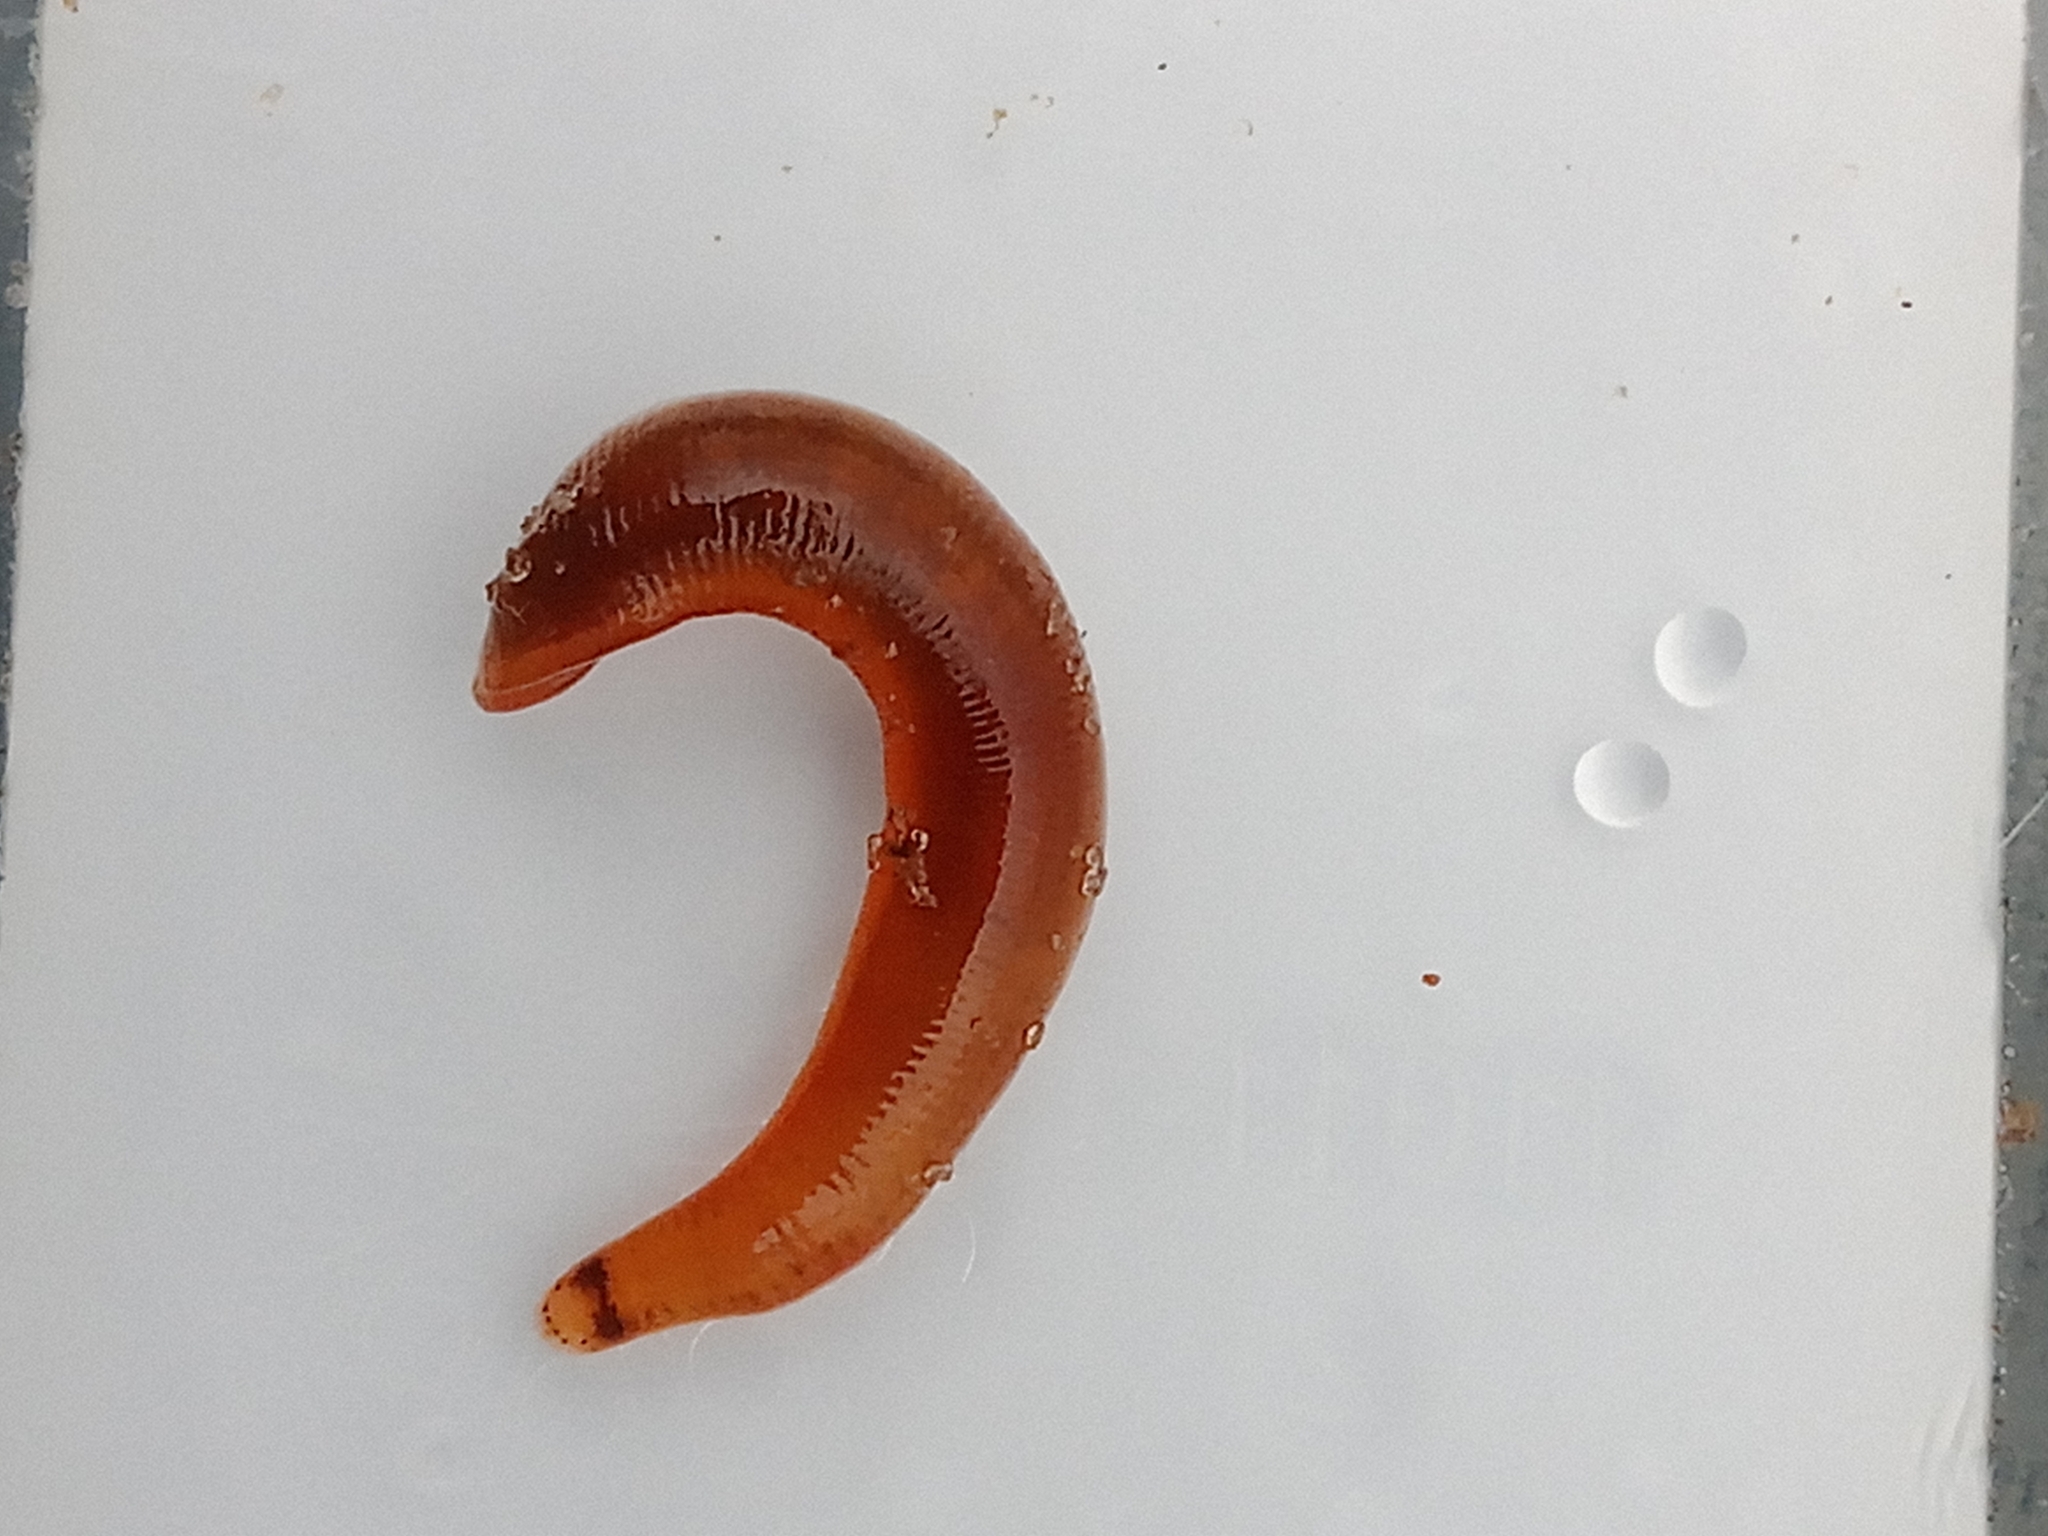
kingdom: Animalia
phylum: Annelida
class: Clitellata
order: Arhynchobdellida
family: Erpobdellidae
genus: Erpobdella
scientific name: Erpobdella nigricollis
